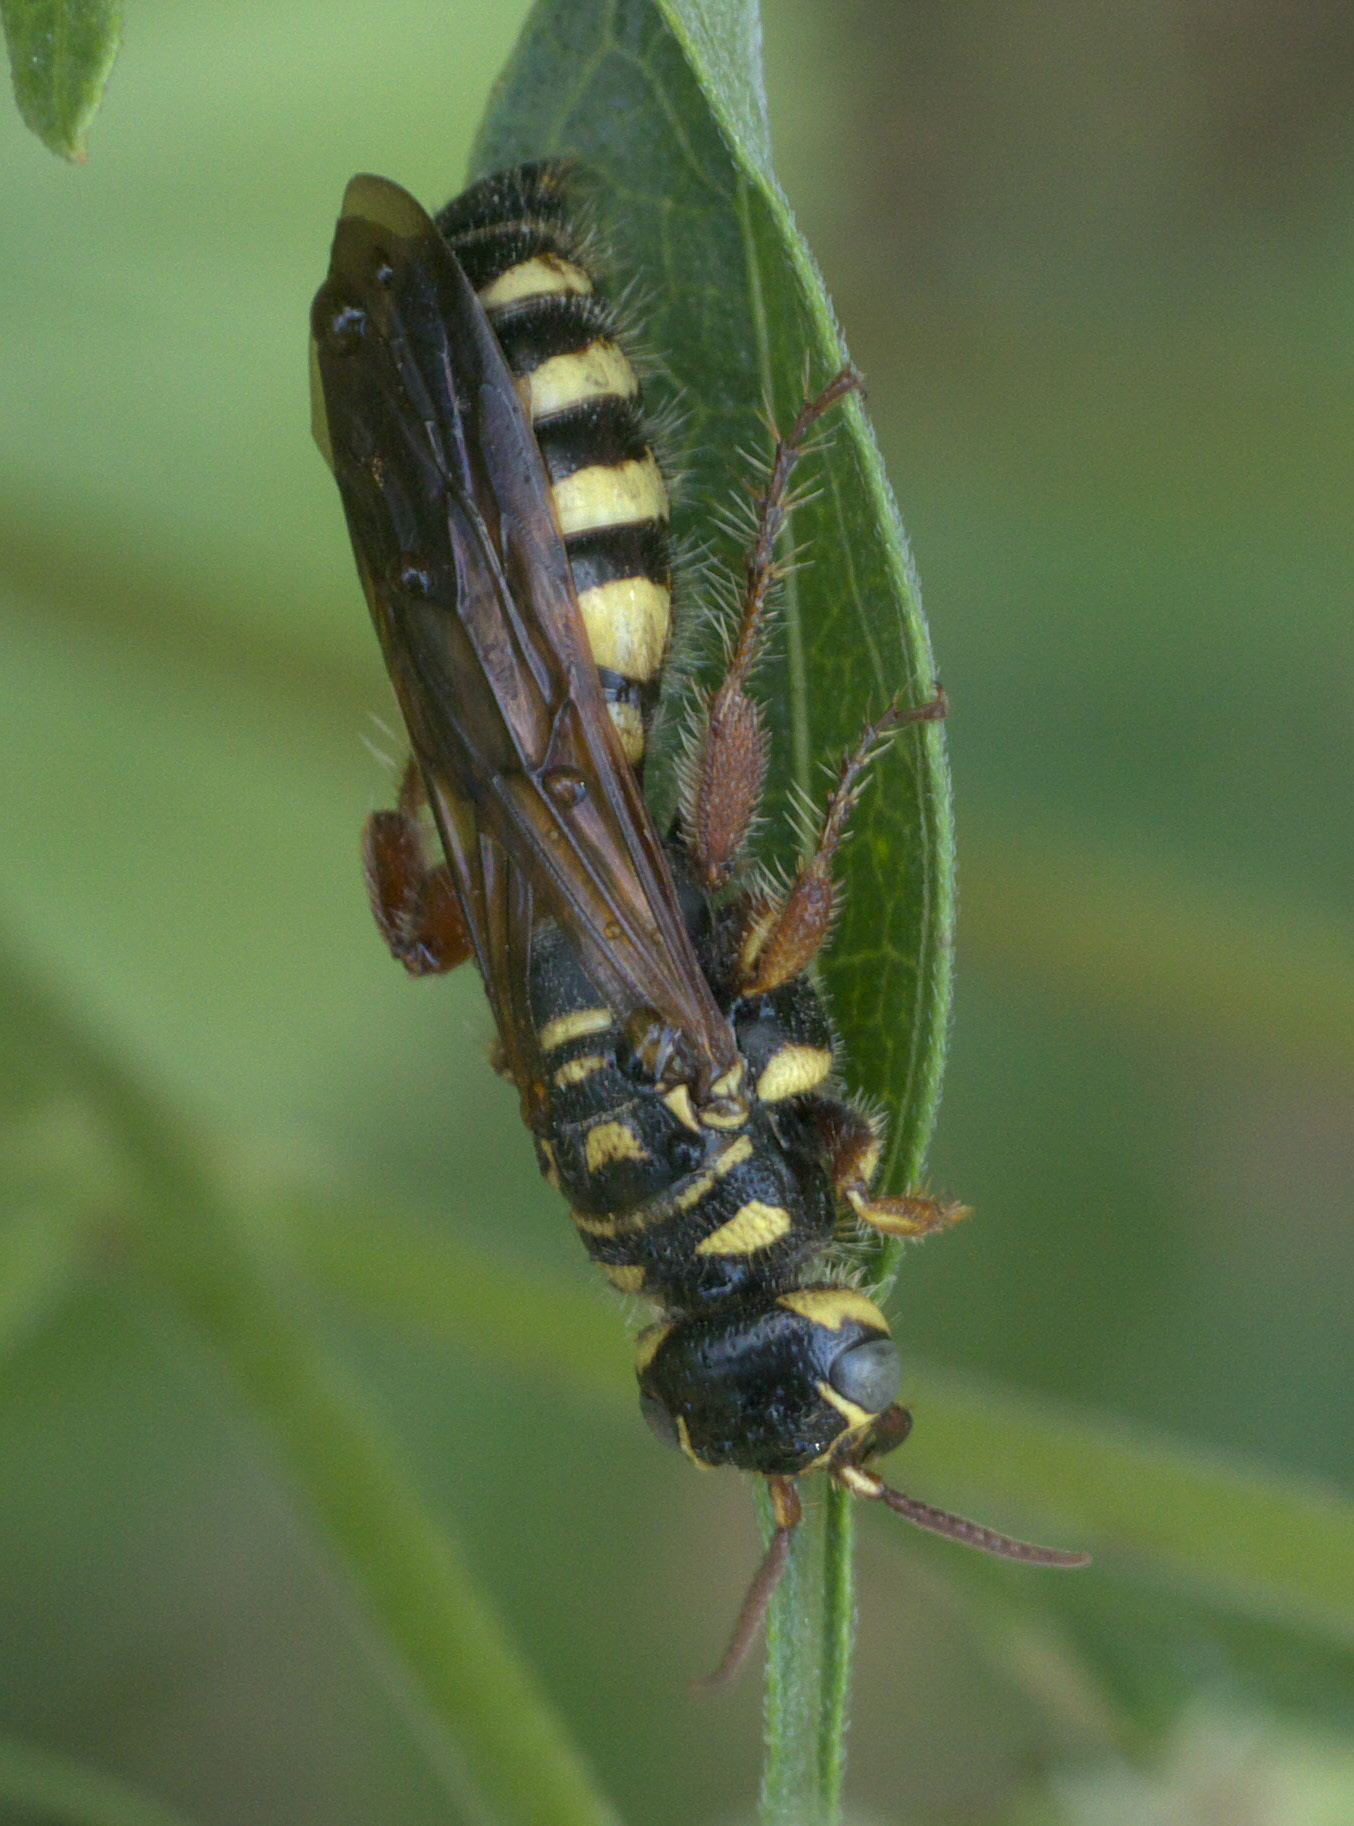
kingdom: Animalia
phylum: Arthropoda
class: Insecta
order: Hymenoptera
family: Tiphiidae
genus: Myzinum
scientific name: Myzinum quinquecinctum
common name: Five-banded thynnid wasp
